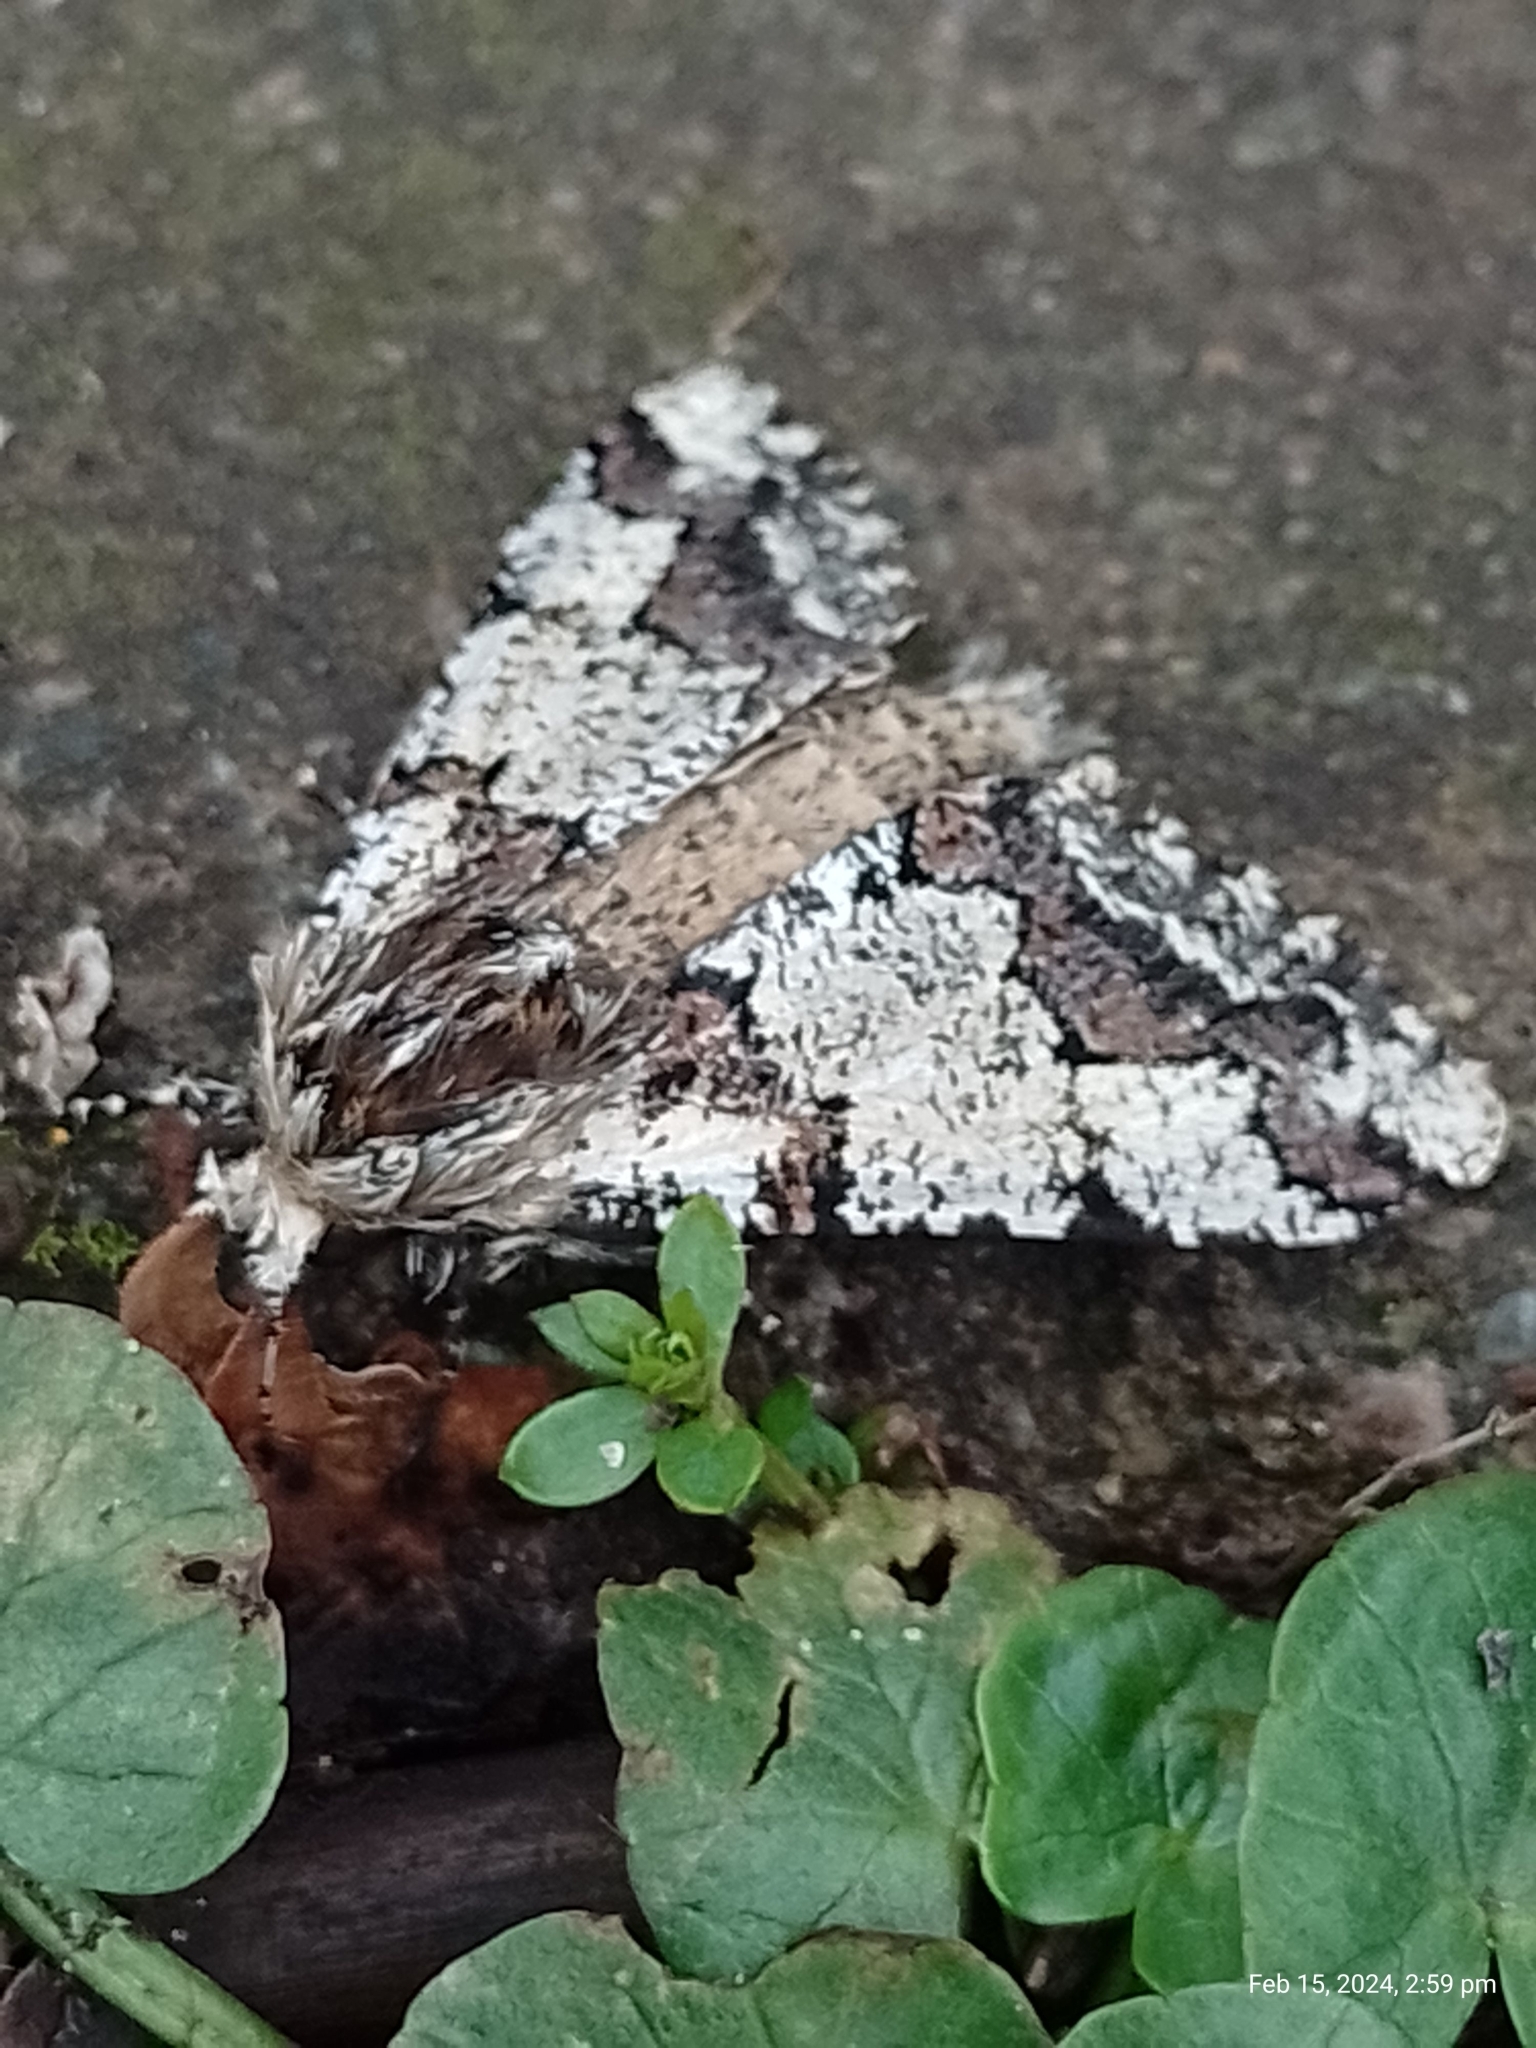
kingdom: Animalia
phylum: Arthropoda
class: Insecta
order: Lepidoptera
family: Geometridae
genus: Biston
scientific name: Biston strataria
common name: Oak beauty
